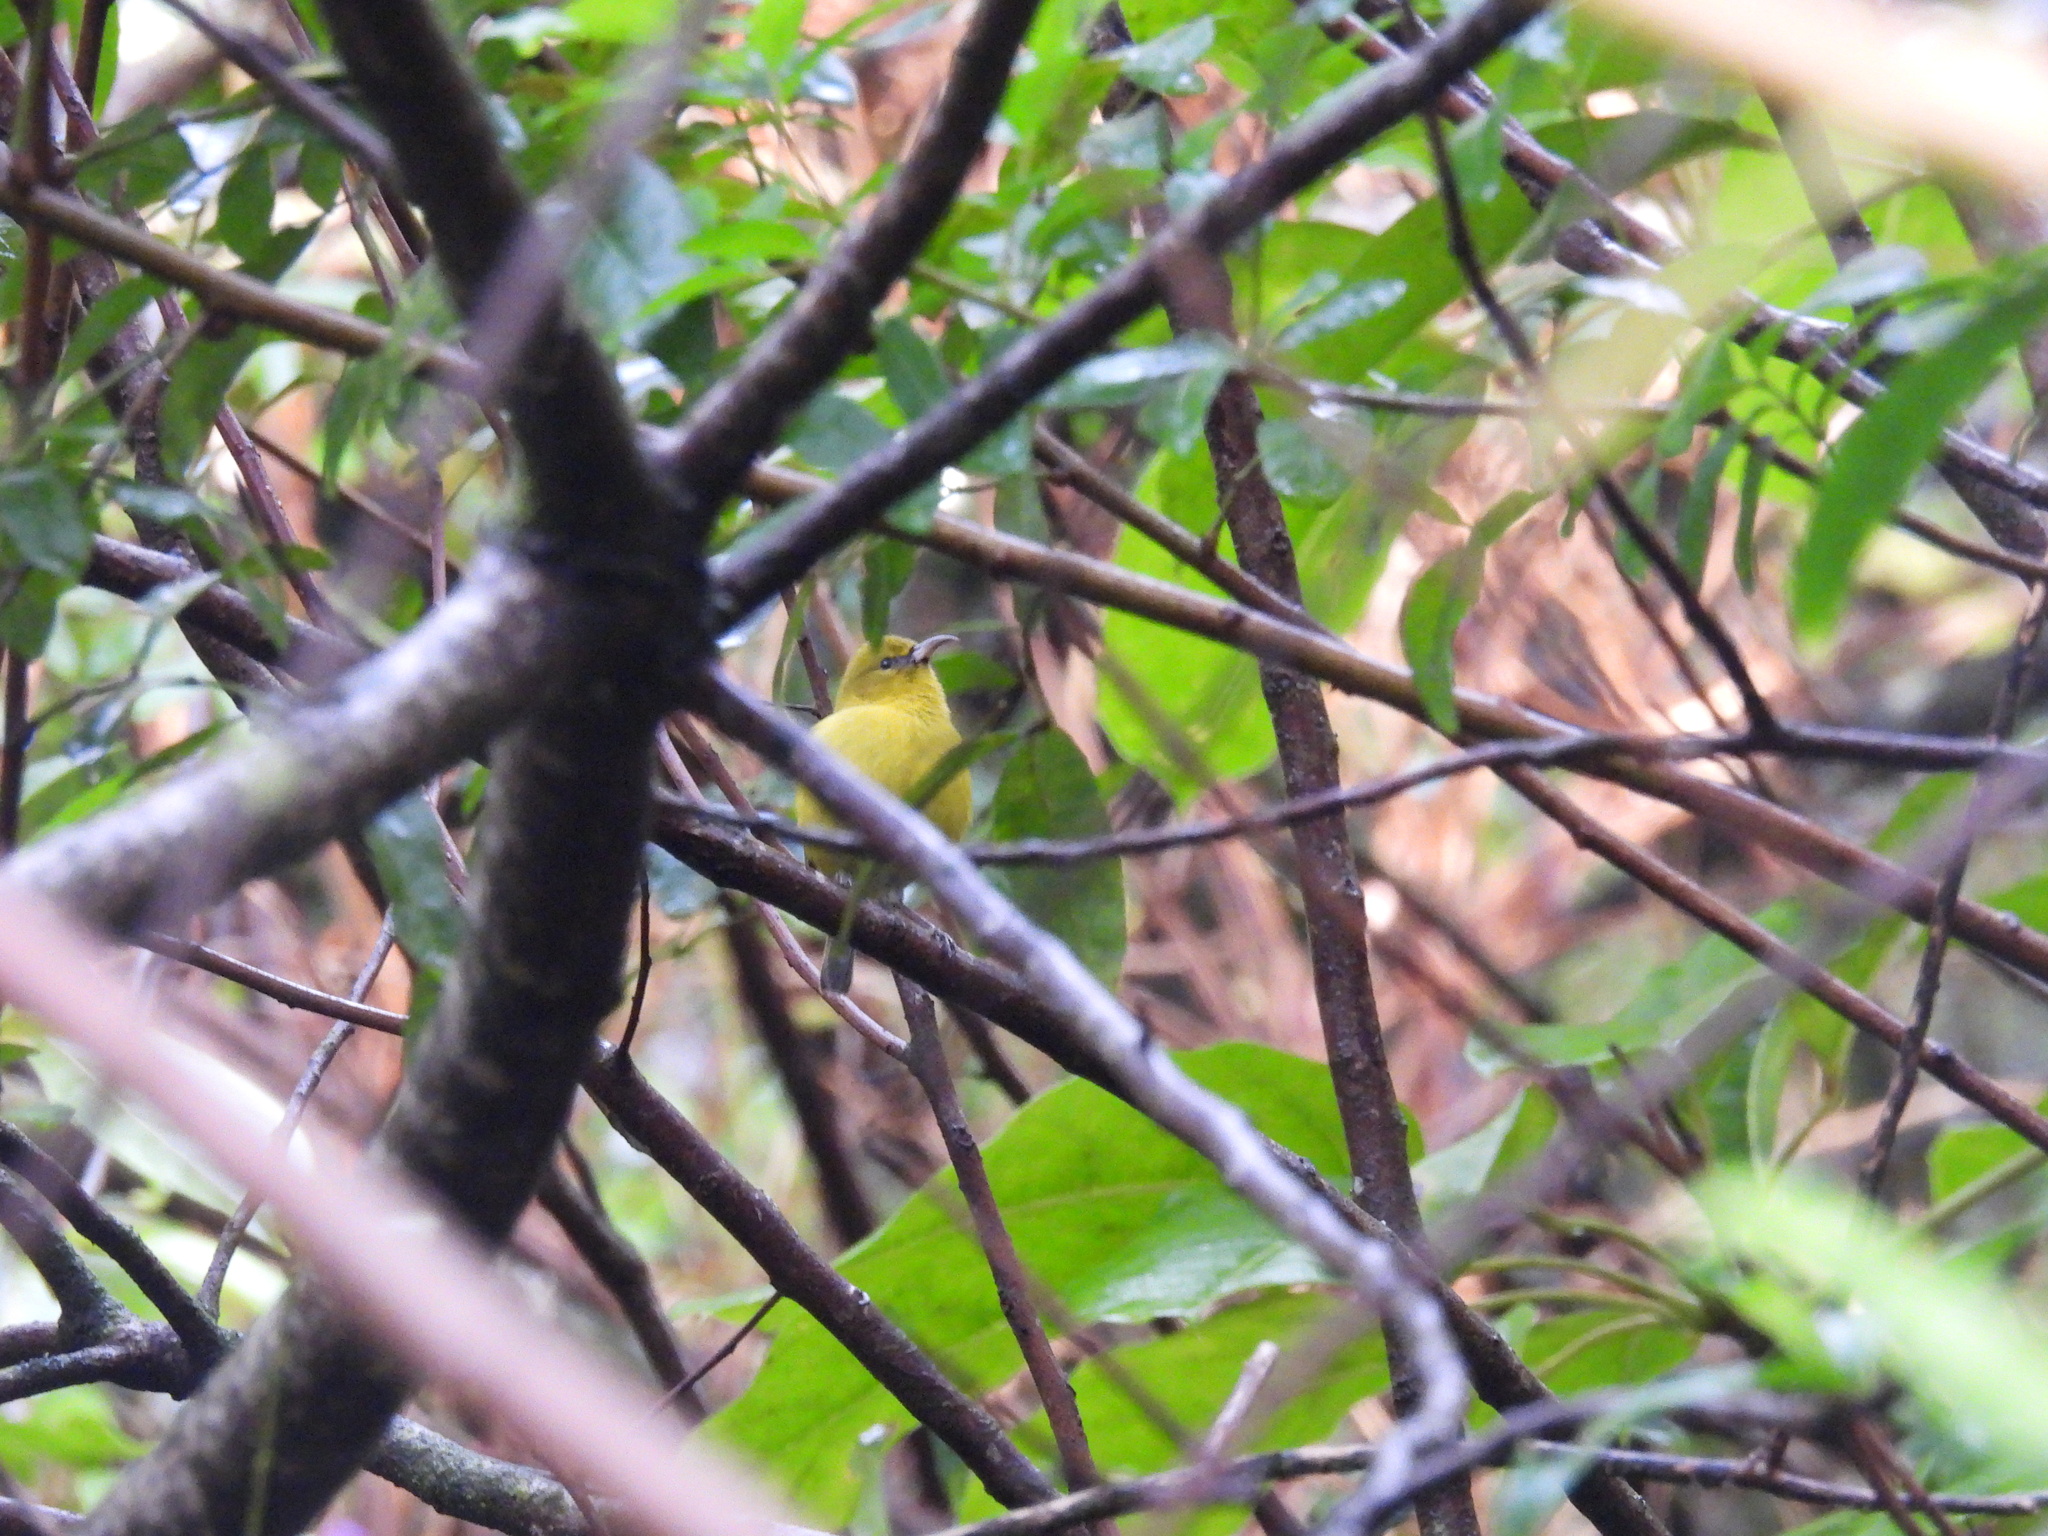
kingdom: Animalia
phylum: Chordata
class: Aves
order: Passeriformes
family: Fringillidae
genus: Chlorodrepanis
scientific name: Chlorodrepanis flava
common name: Oahu amakihi
